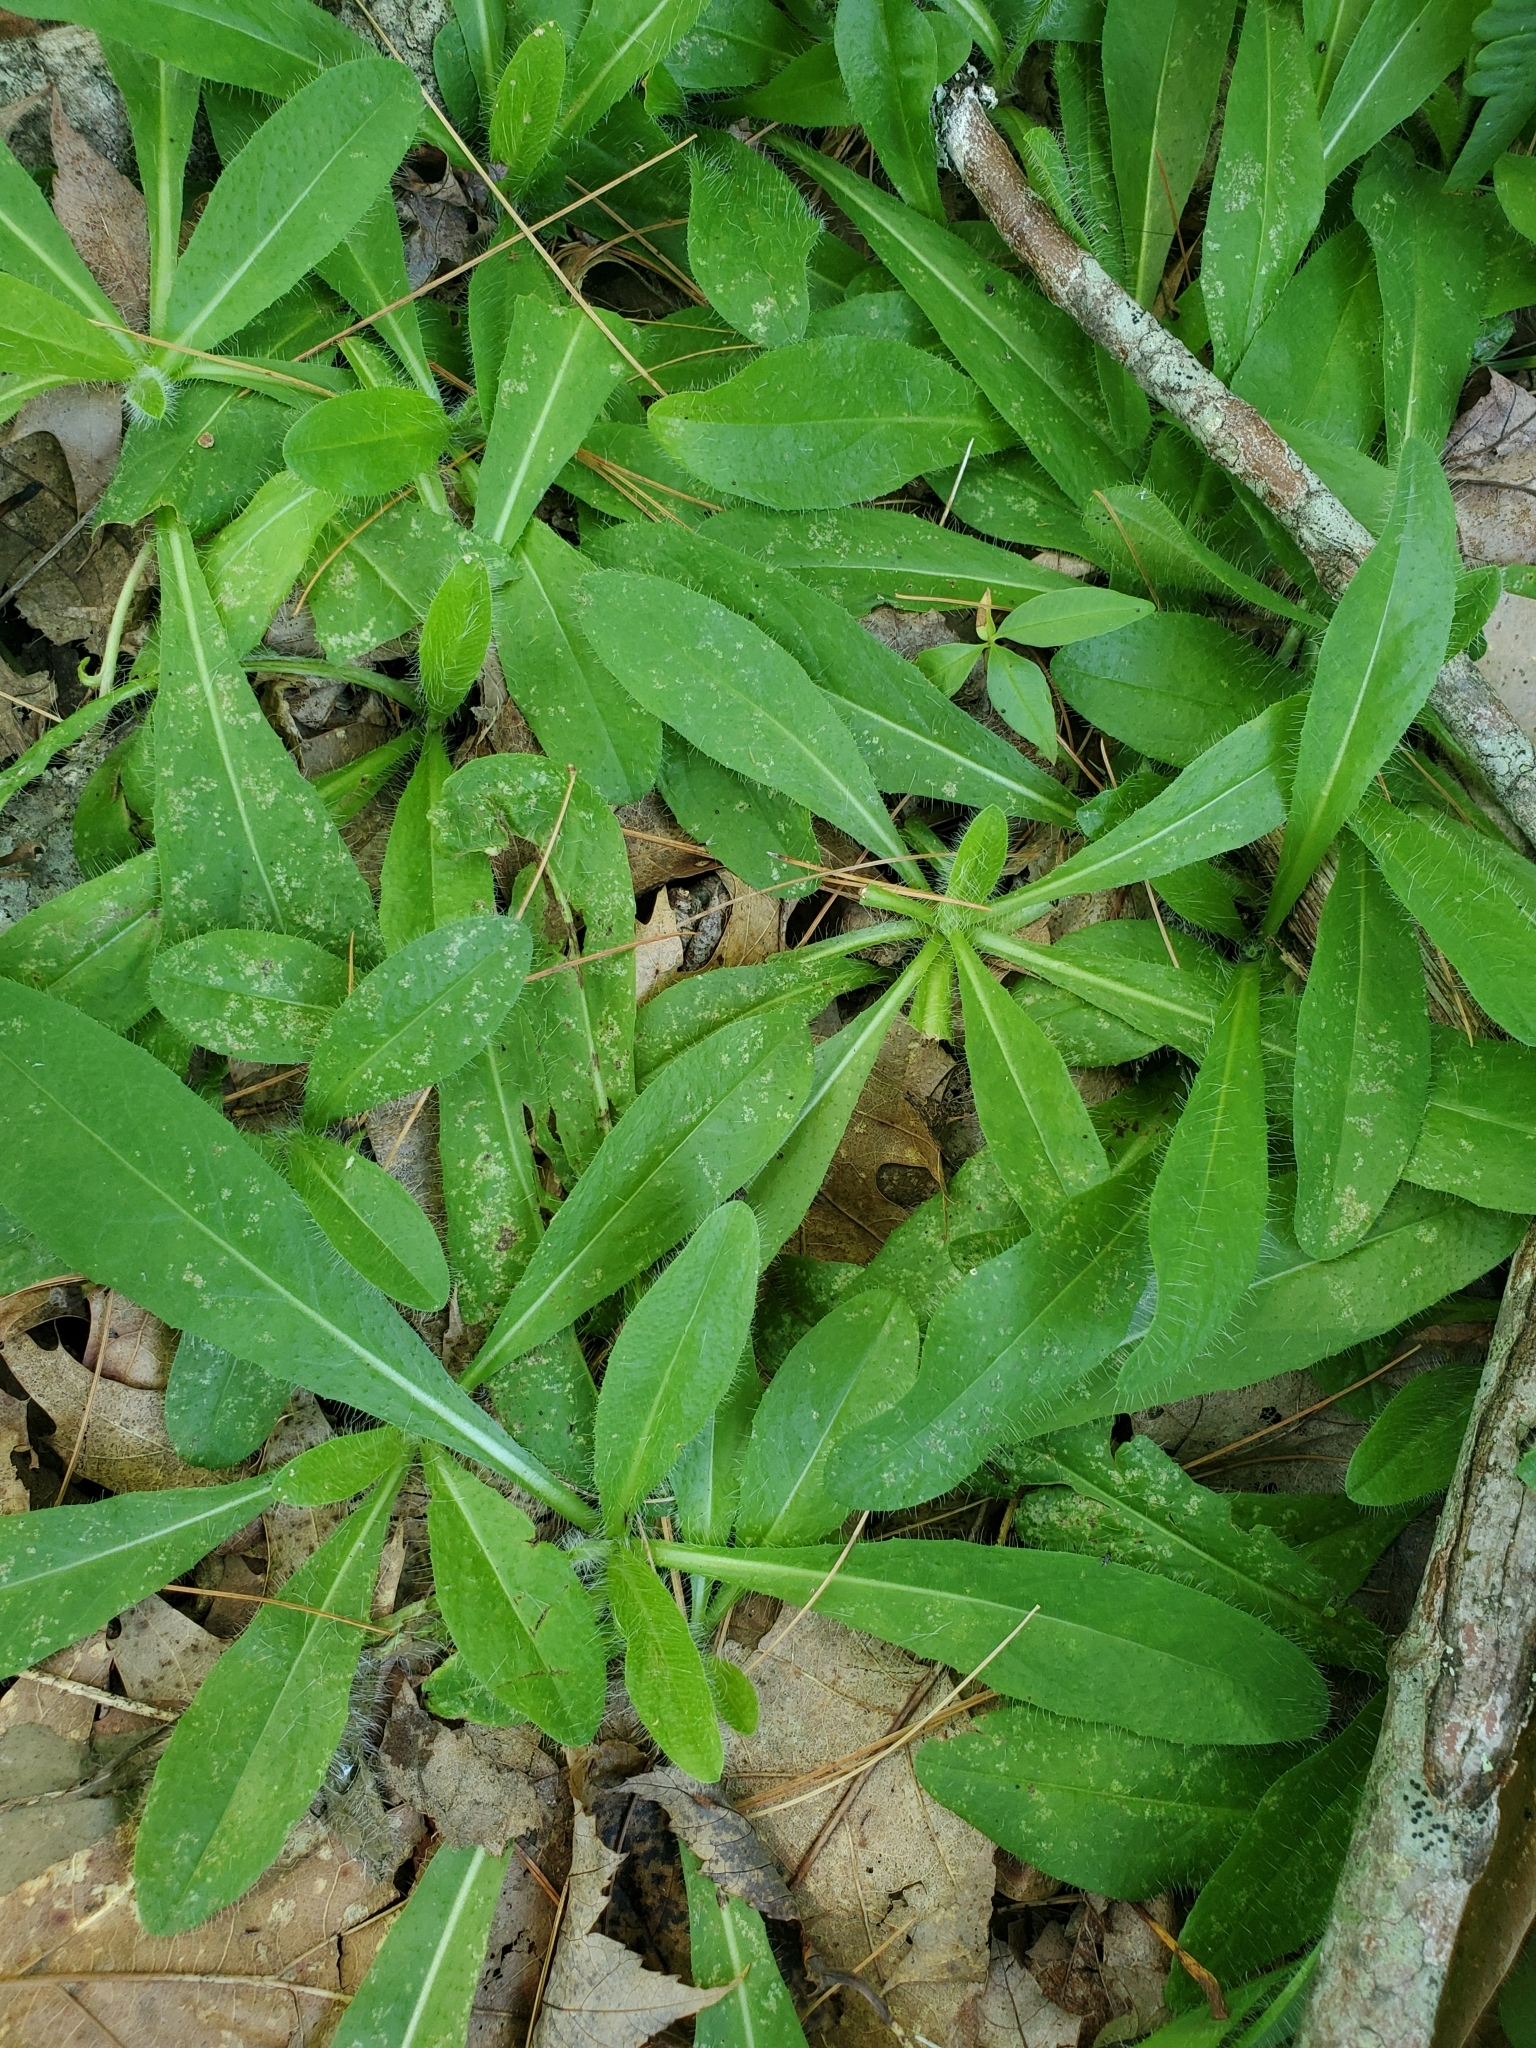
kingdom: Plantae
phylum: Tracheophyta
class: Magnoliopsida
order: Asterales
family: Asteraceae
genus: Pilosella
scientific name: Pilosella aurantiaca
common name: Fox-and-cubs
